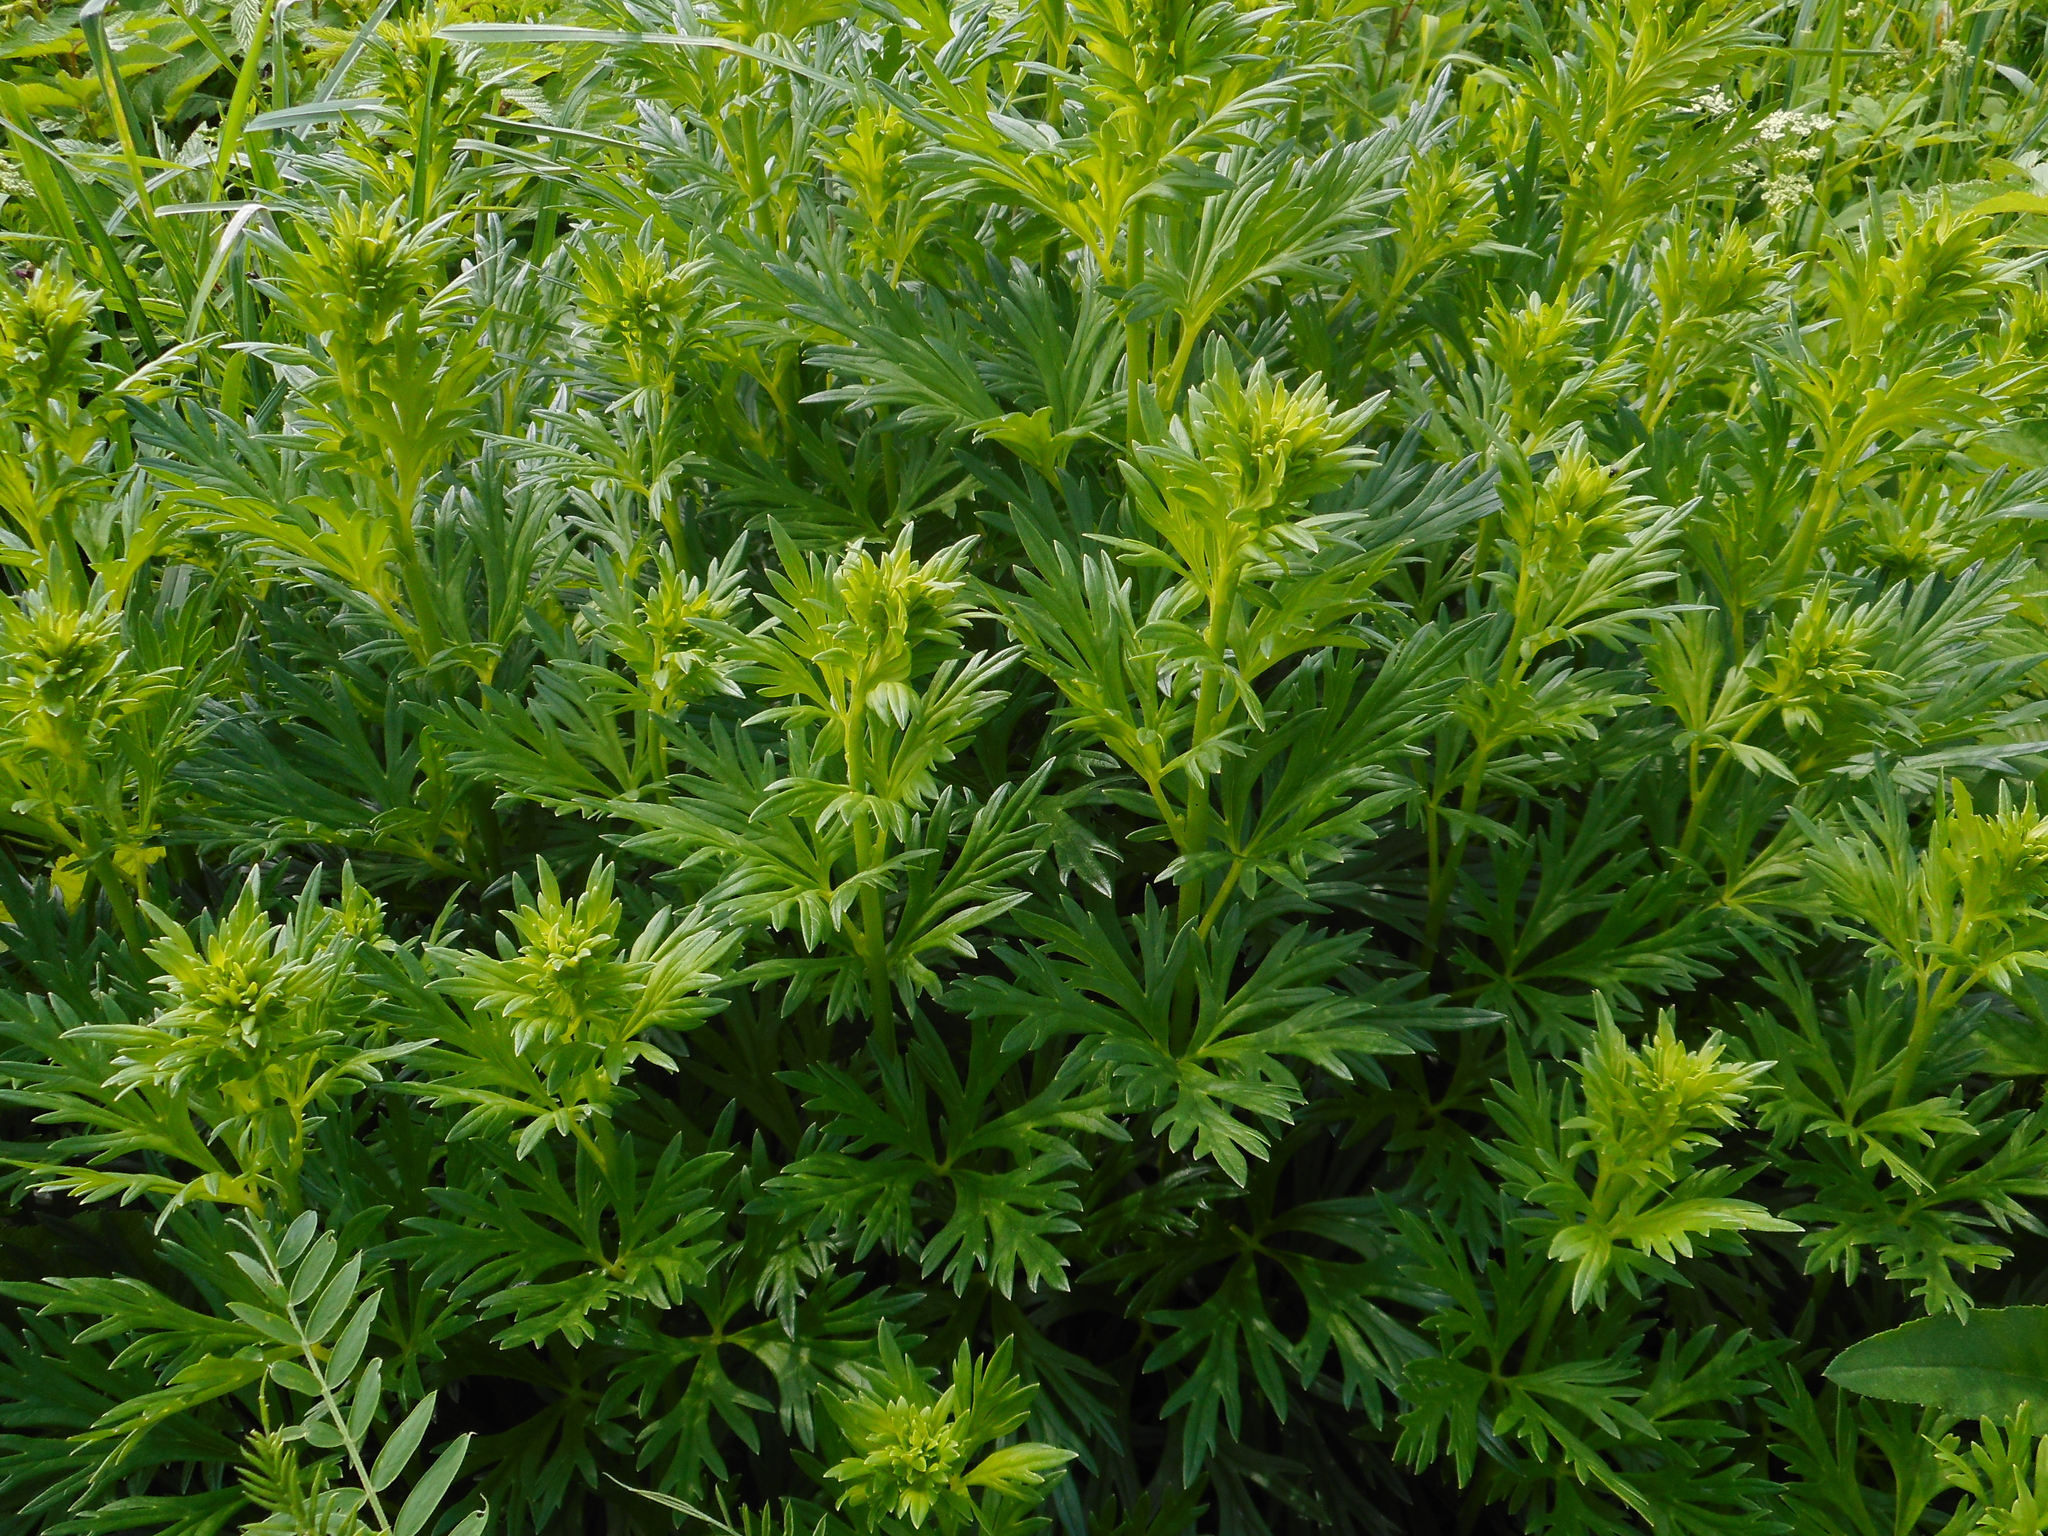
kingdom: Plantae
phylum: Tracheophyta
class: Magnoliopsida
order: Ranunculales
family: Ranunculaceae
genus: Aconitum
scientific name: Aconitum cammarum
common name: Hybrid monk's-hood
